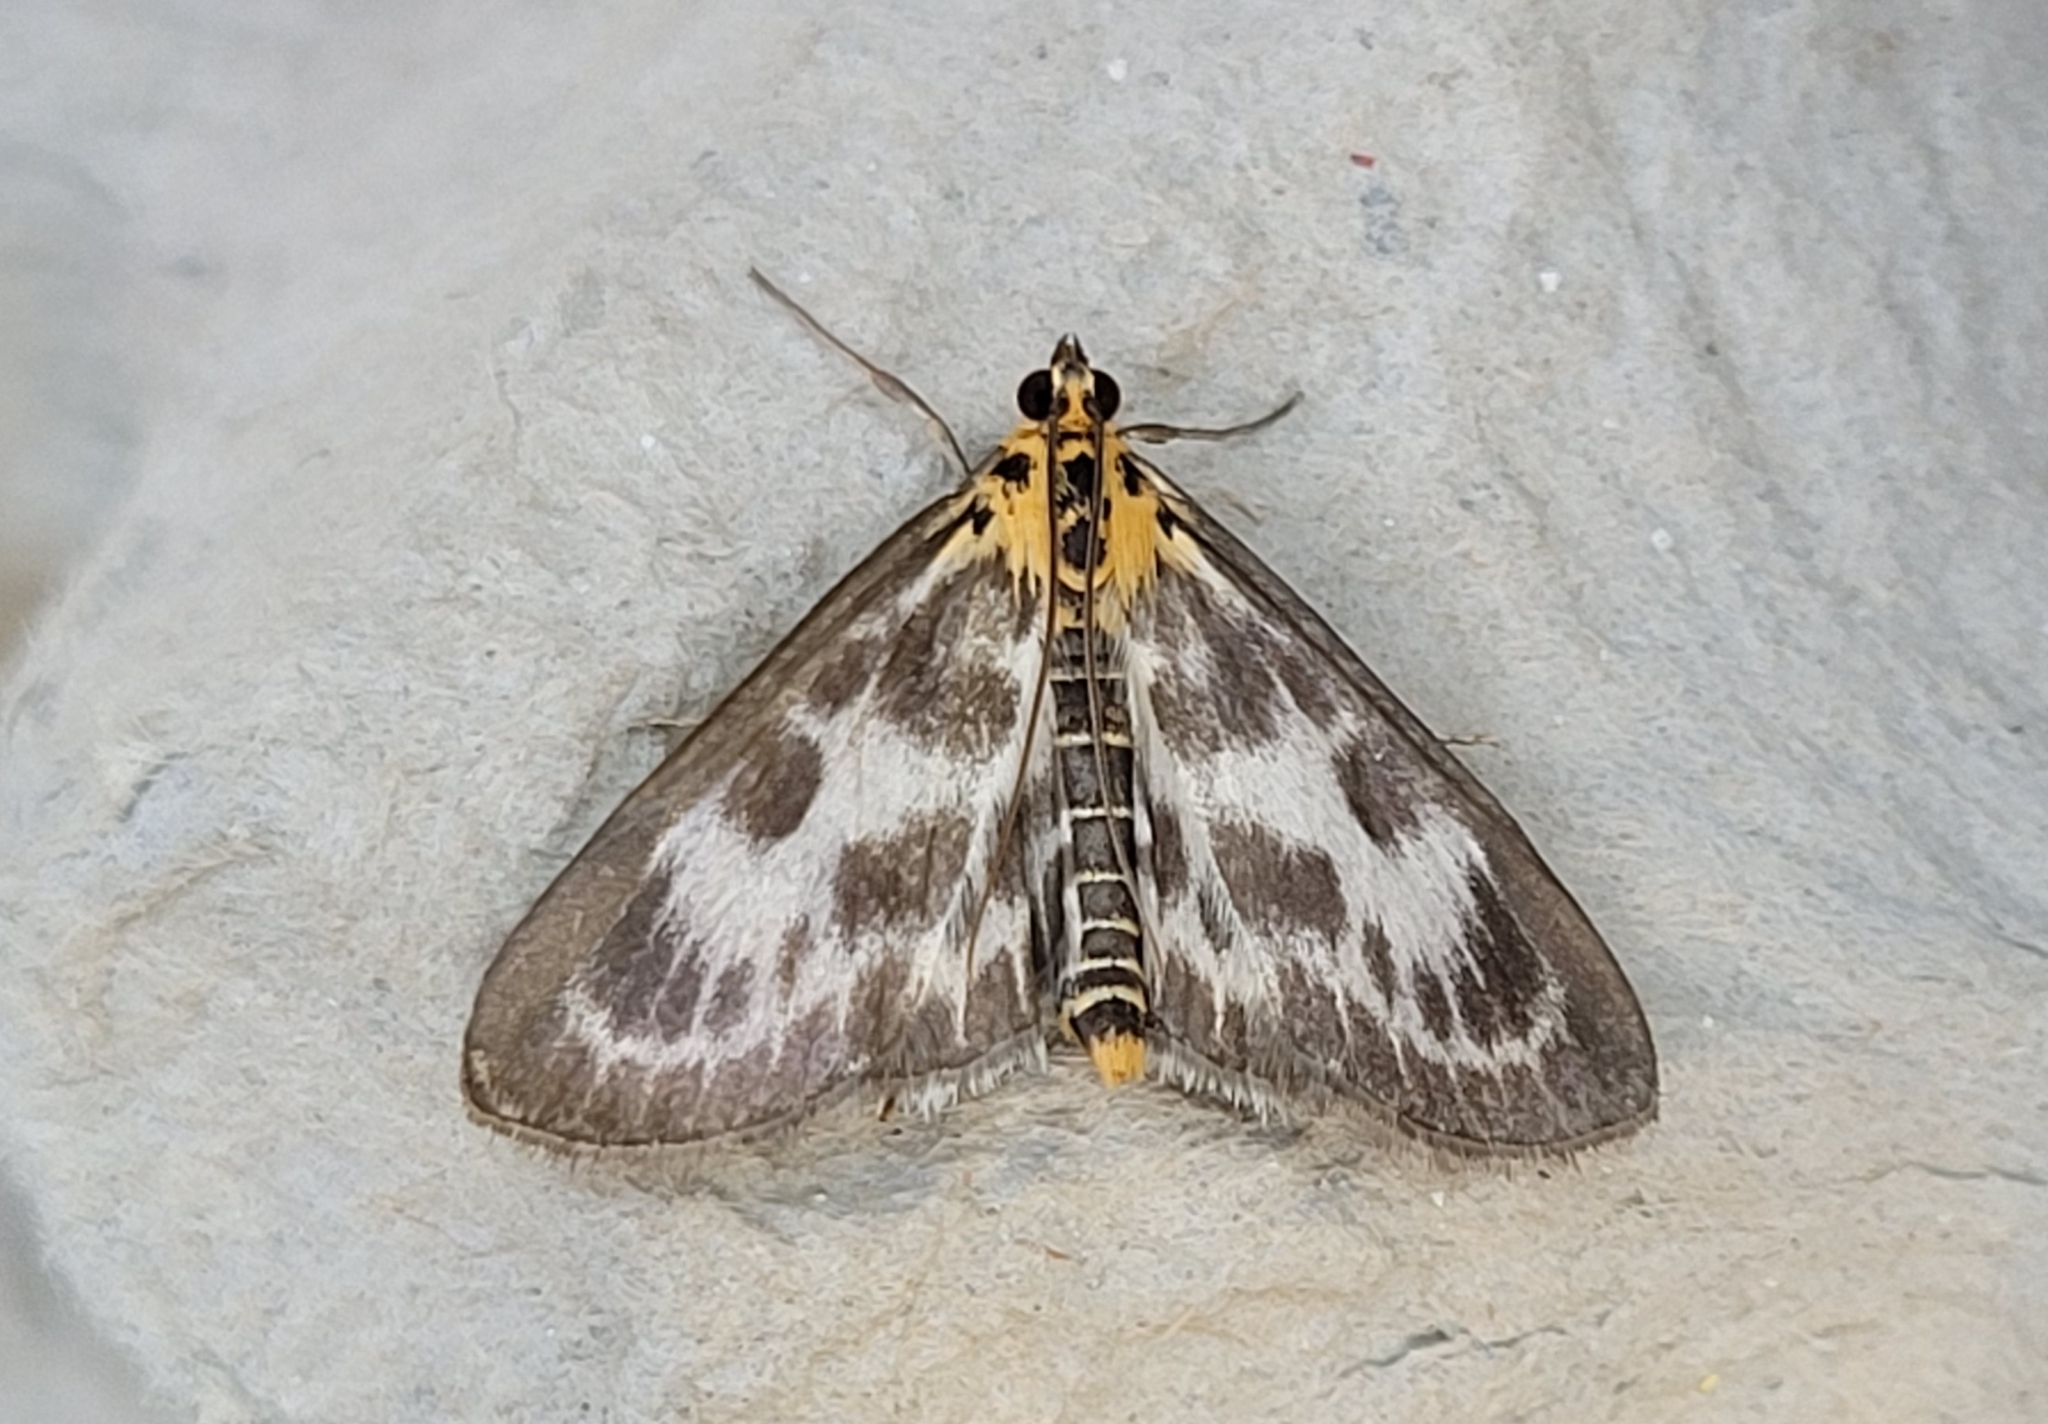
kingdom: Animalia
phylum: Arthropoda
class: Insecta
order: Lepidoptera
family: Crambidae
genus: Anania
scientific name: Anania hortulata
